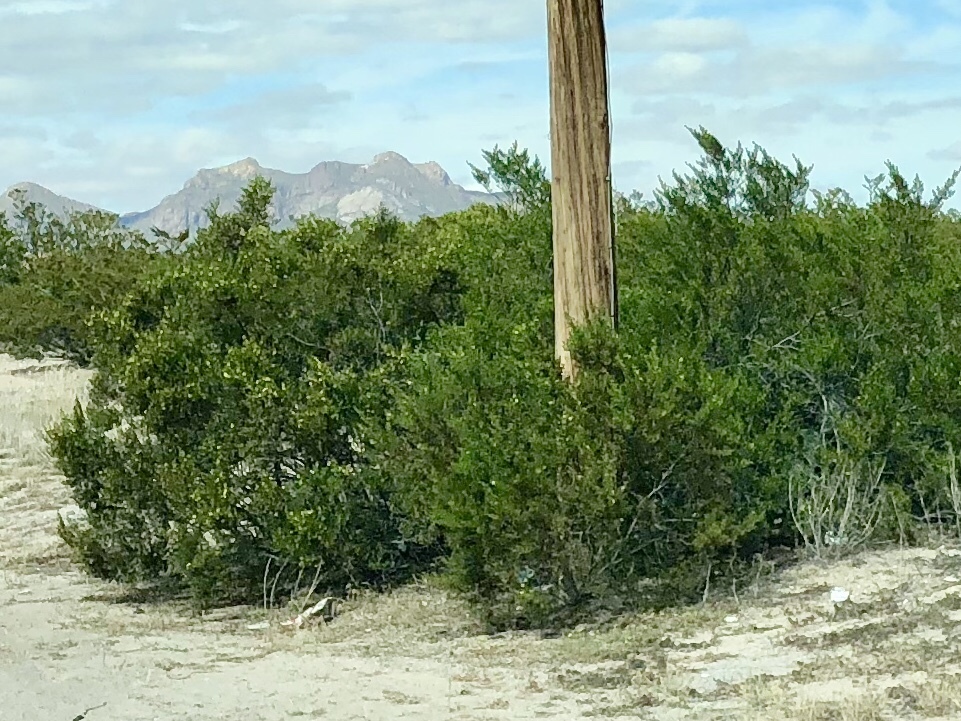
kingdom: Plantae
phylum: Tracheophyta
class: Magnoliopsida
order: Zygophyllales
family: Zygophyllaceae
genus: Larrea
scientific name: Larrea tridentata
